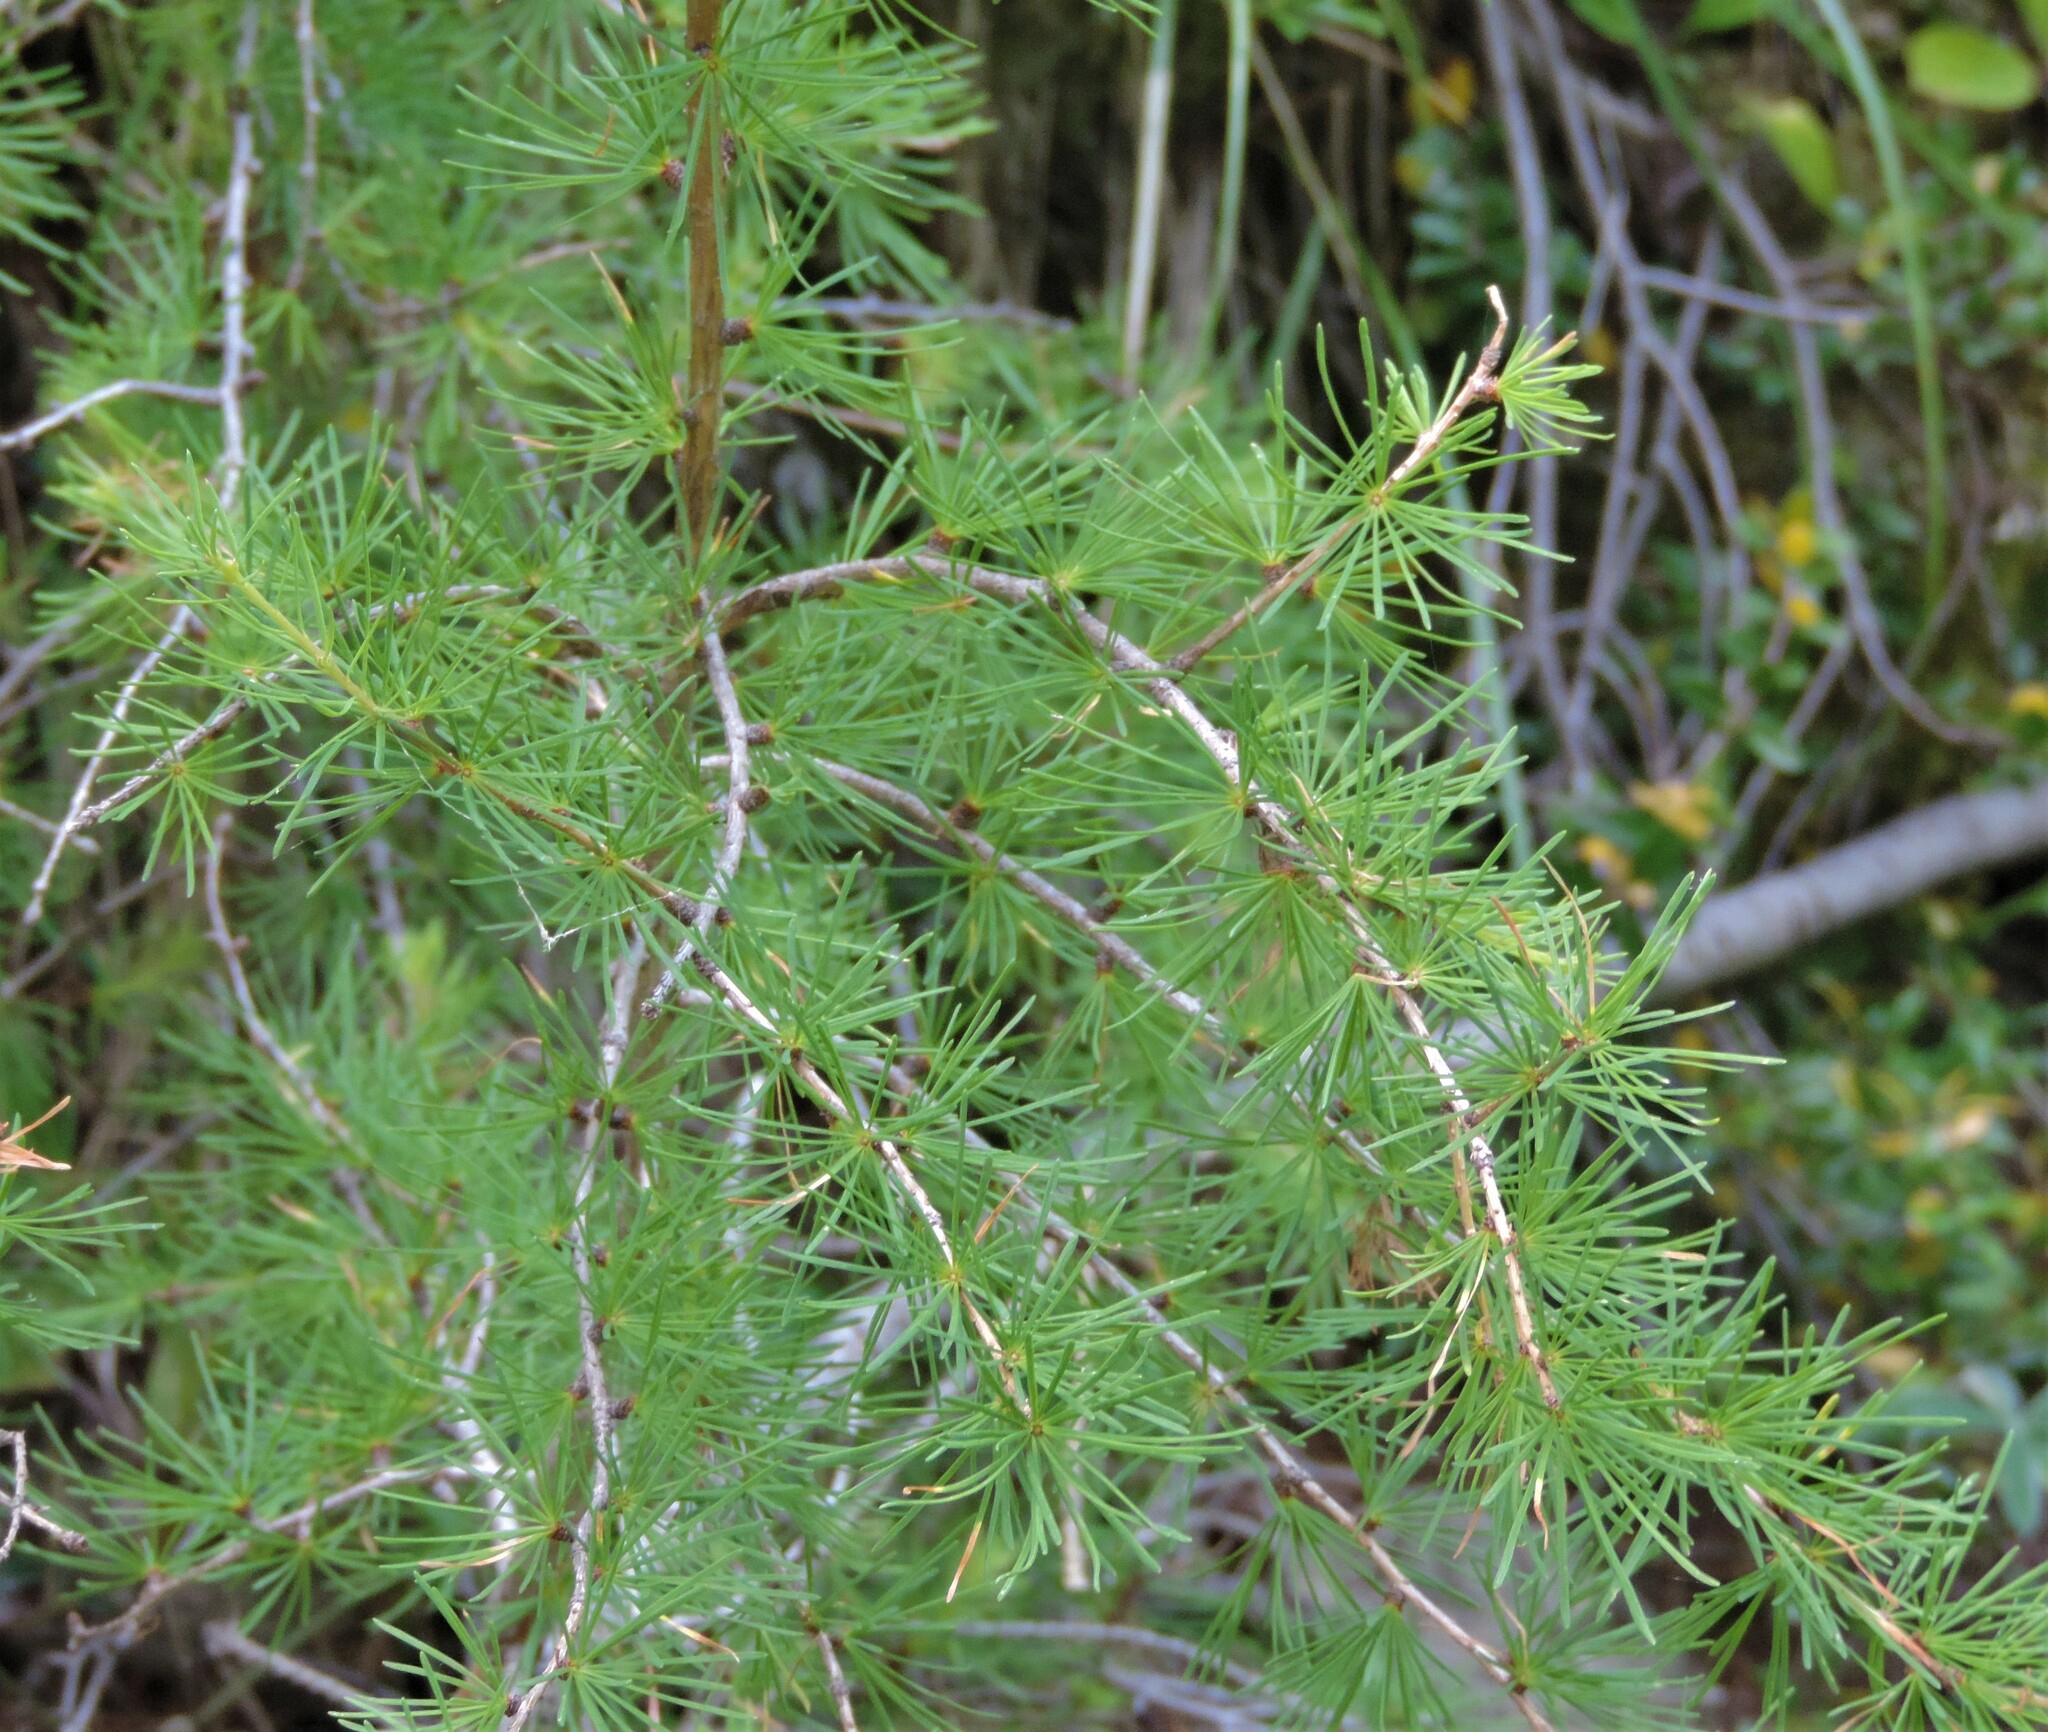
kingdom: Plantae
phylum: Tracheophyta
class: Pinopsida
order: Pinales
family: Pinaceae
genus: Larix
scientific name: Larix occidentalis
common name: Western larch
